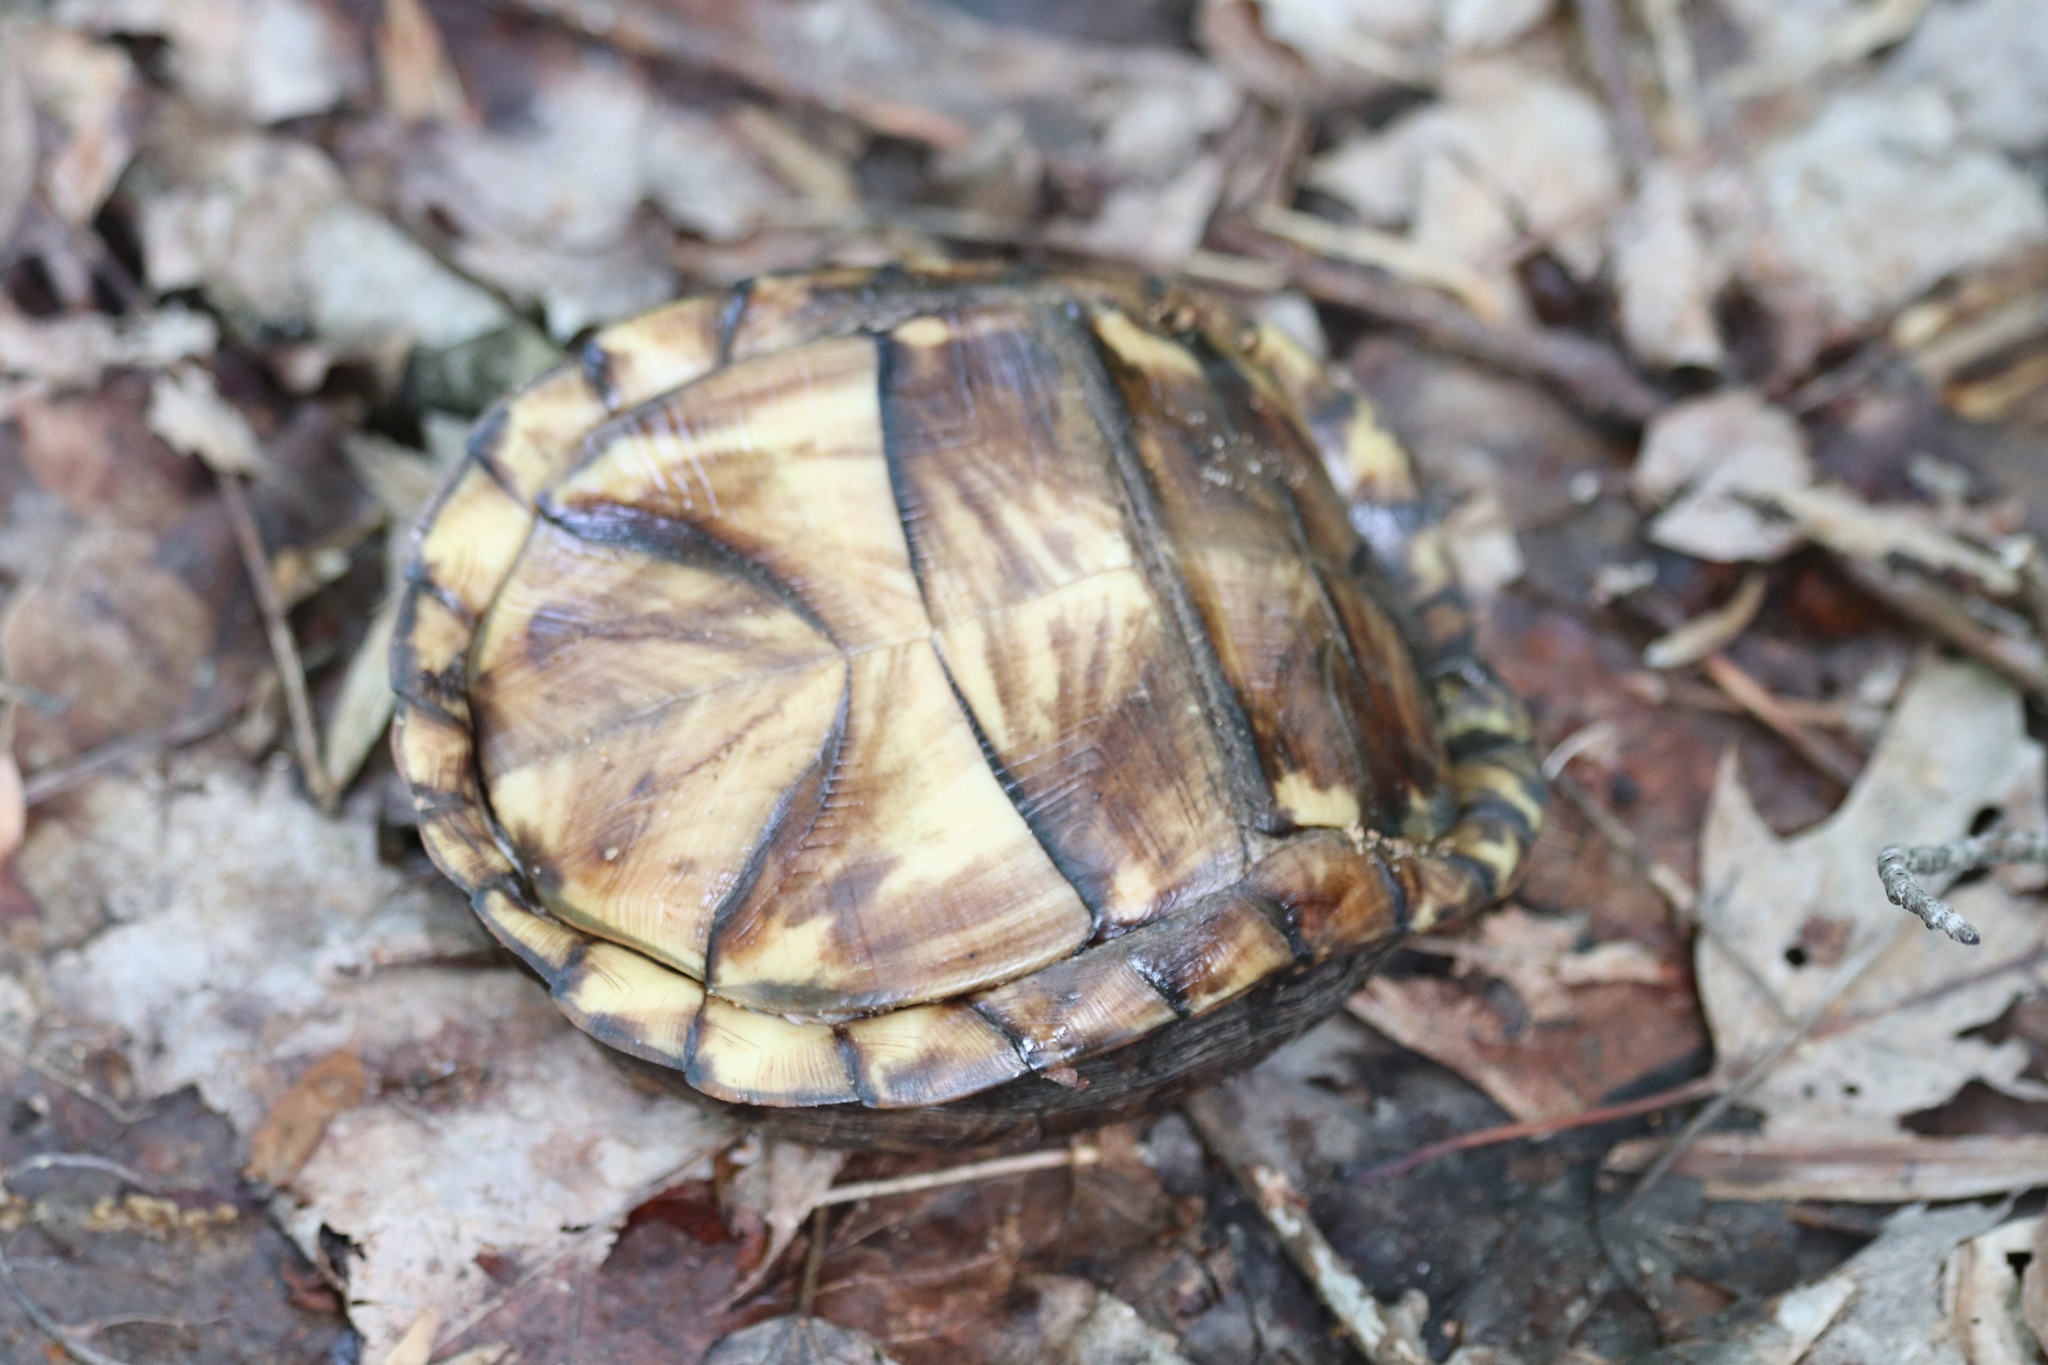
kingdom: Animalia
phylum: Chordata
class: Testudines
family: Emydidae
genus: Terrapene
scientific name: Terrapene carolina
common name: Common box turtle
